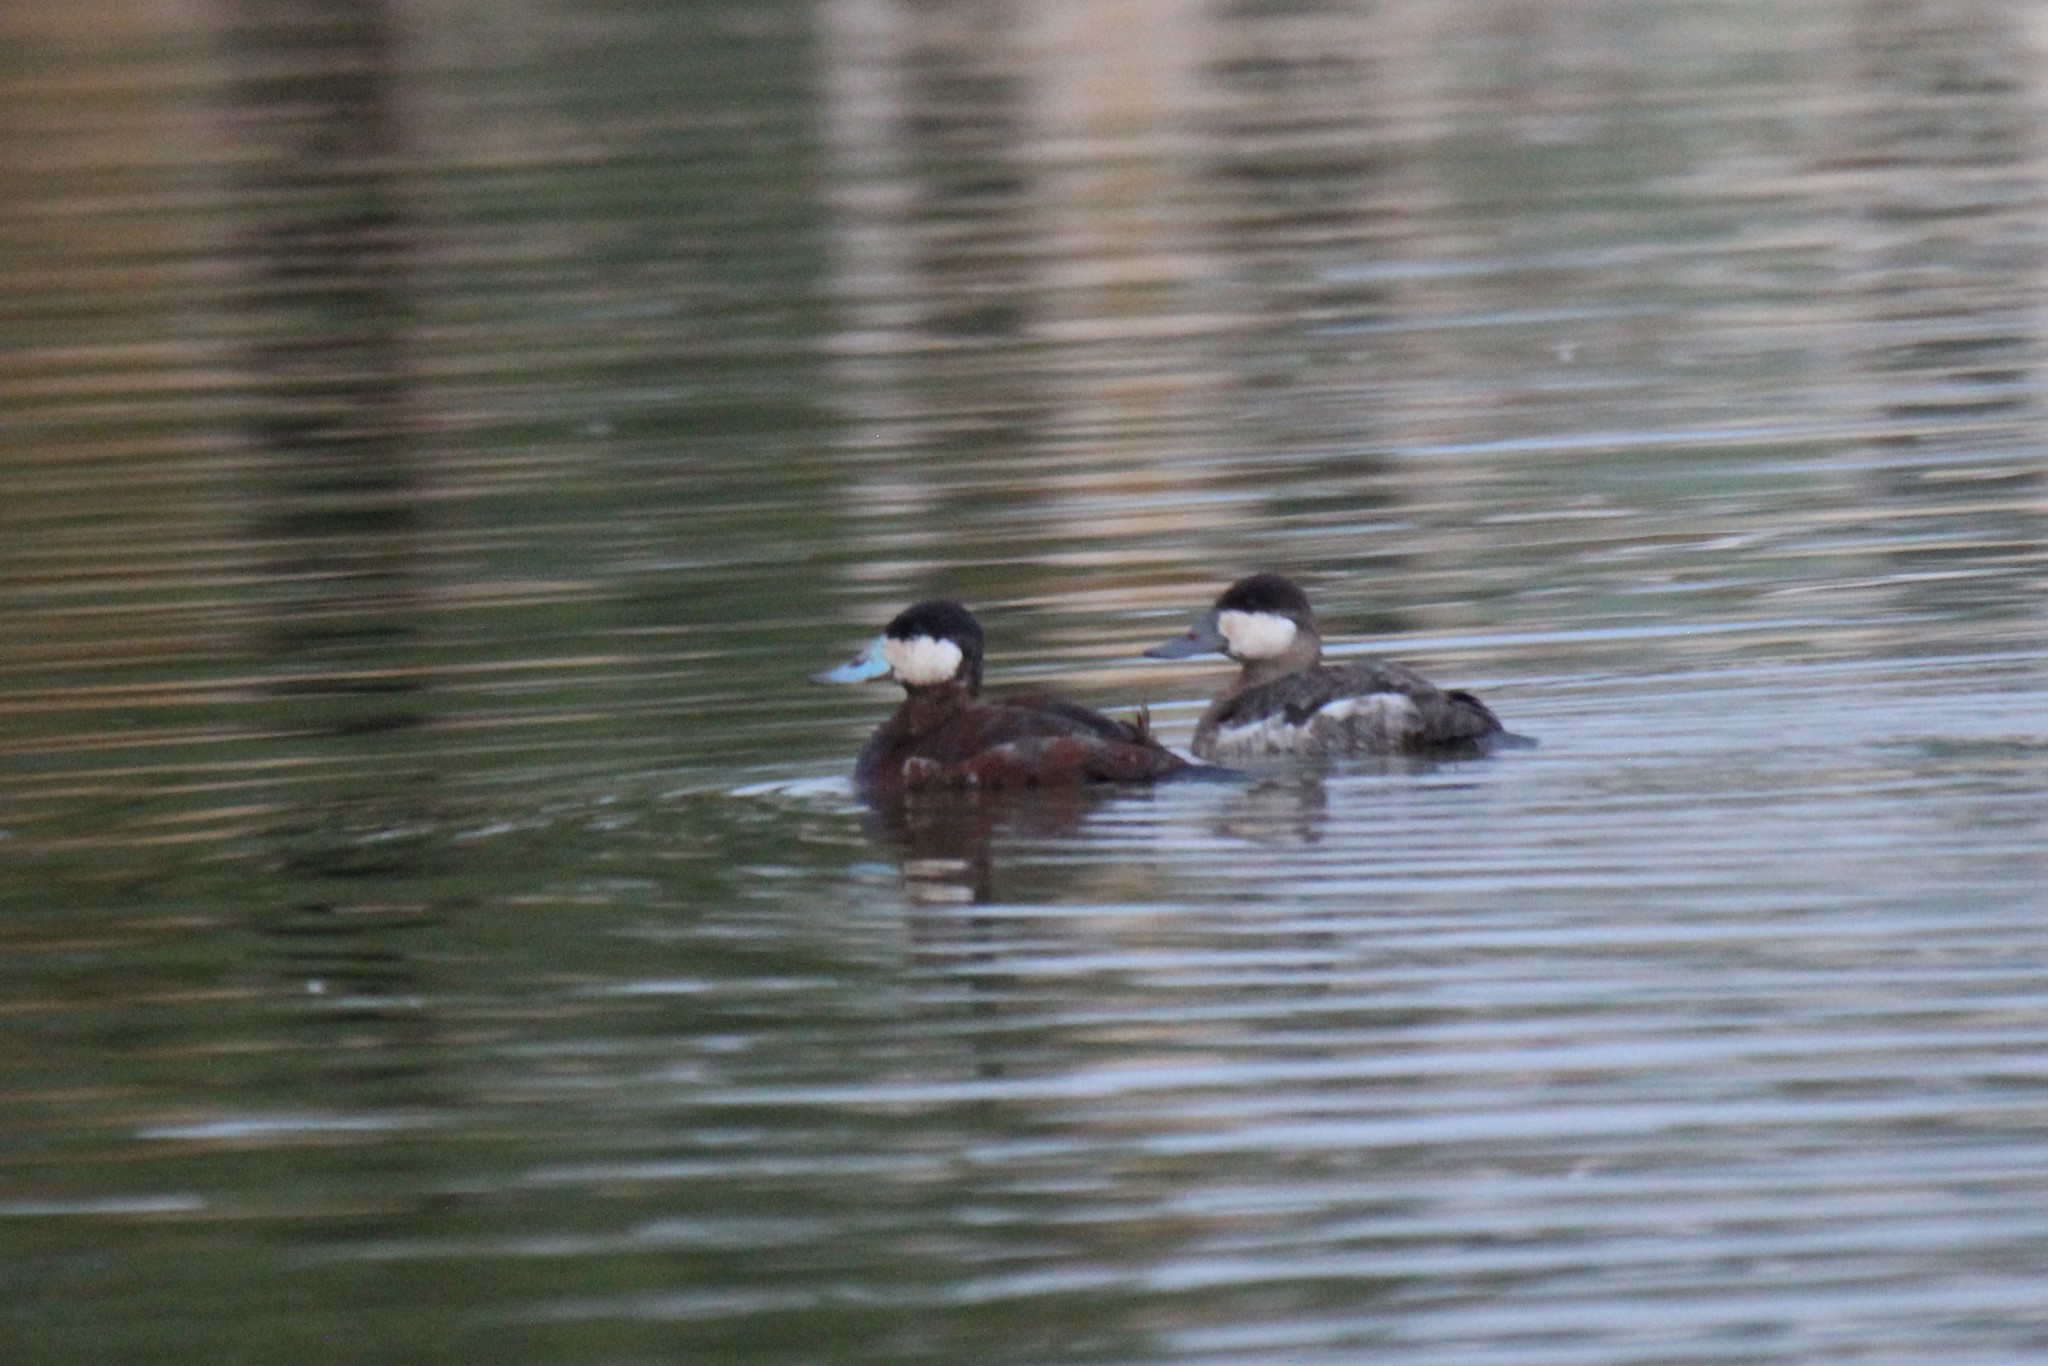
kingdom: Animalia
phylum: Chordata
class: Aves
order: Anseriformes
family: Anatidae
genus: Oxyura
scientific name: Oxyura jamaicensis
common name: Ruddy duck
